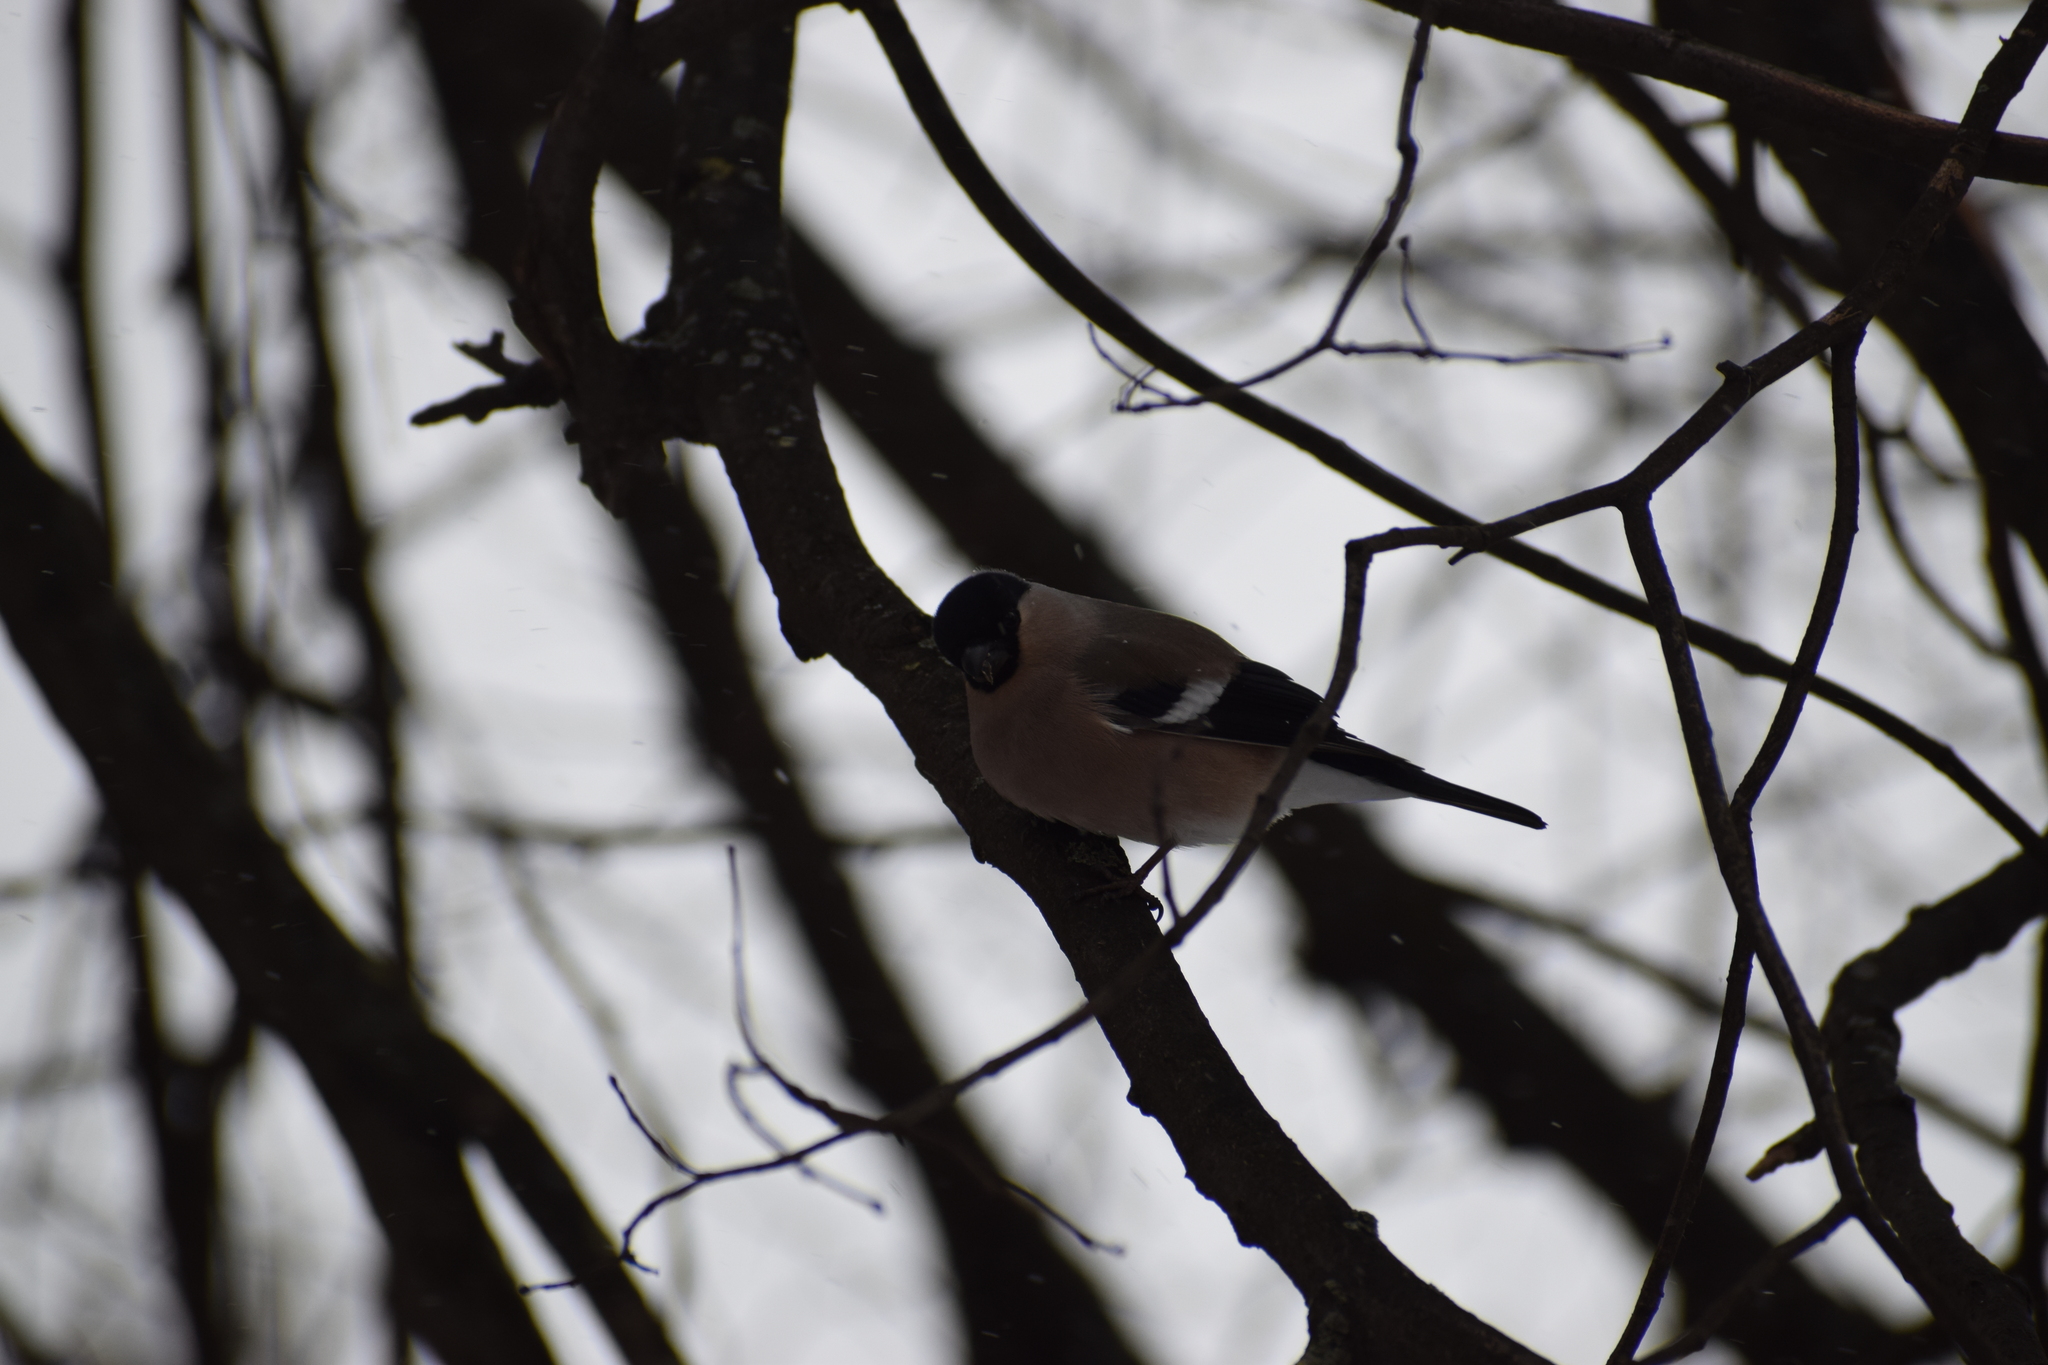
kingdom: Animalia
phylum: Chordata
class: Aves
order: Passeriformes
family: Fringillidae
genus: Pyrrhula
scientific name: Pyrrhula pyrrhula
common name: Eurasian bullfinch
